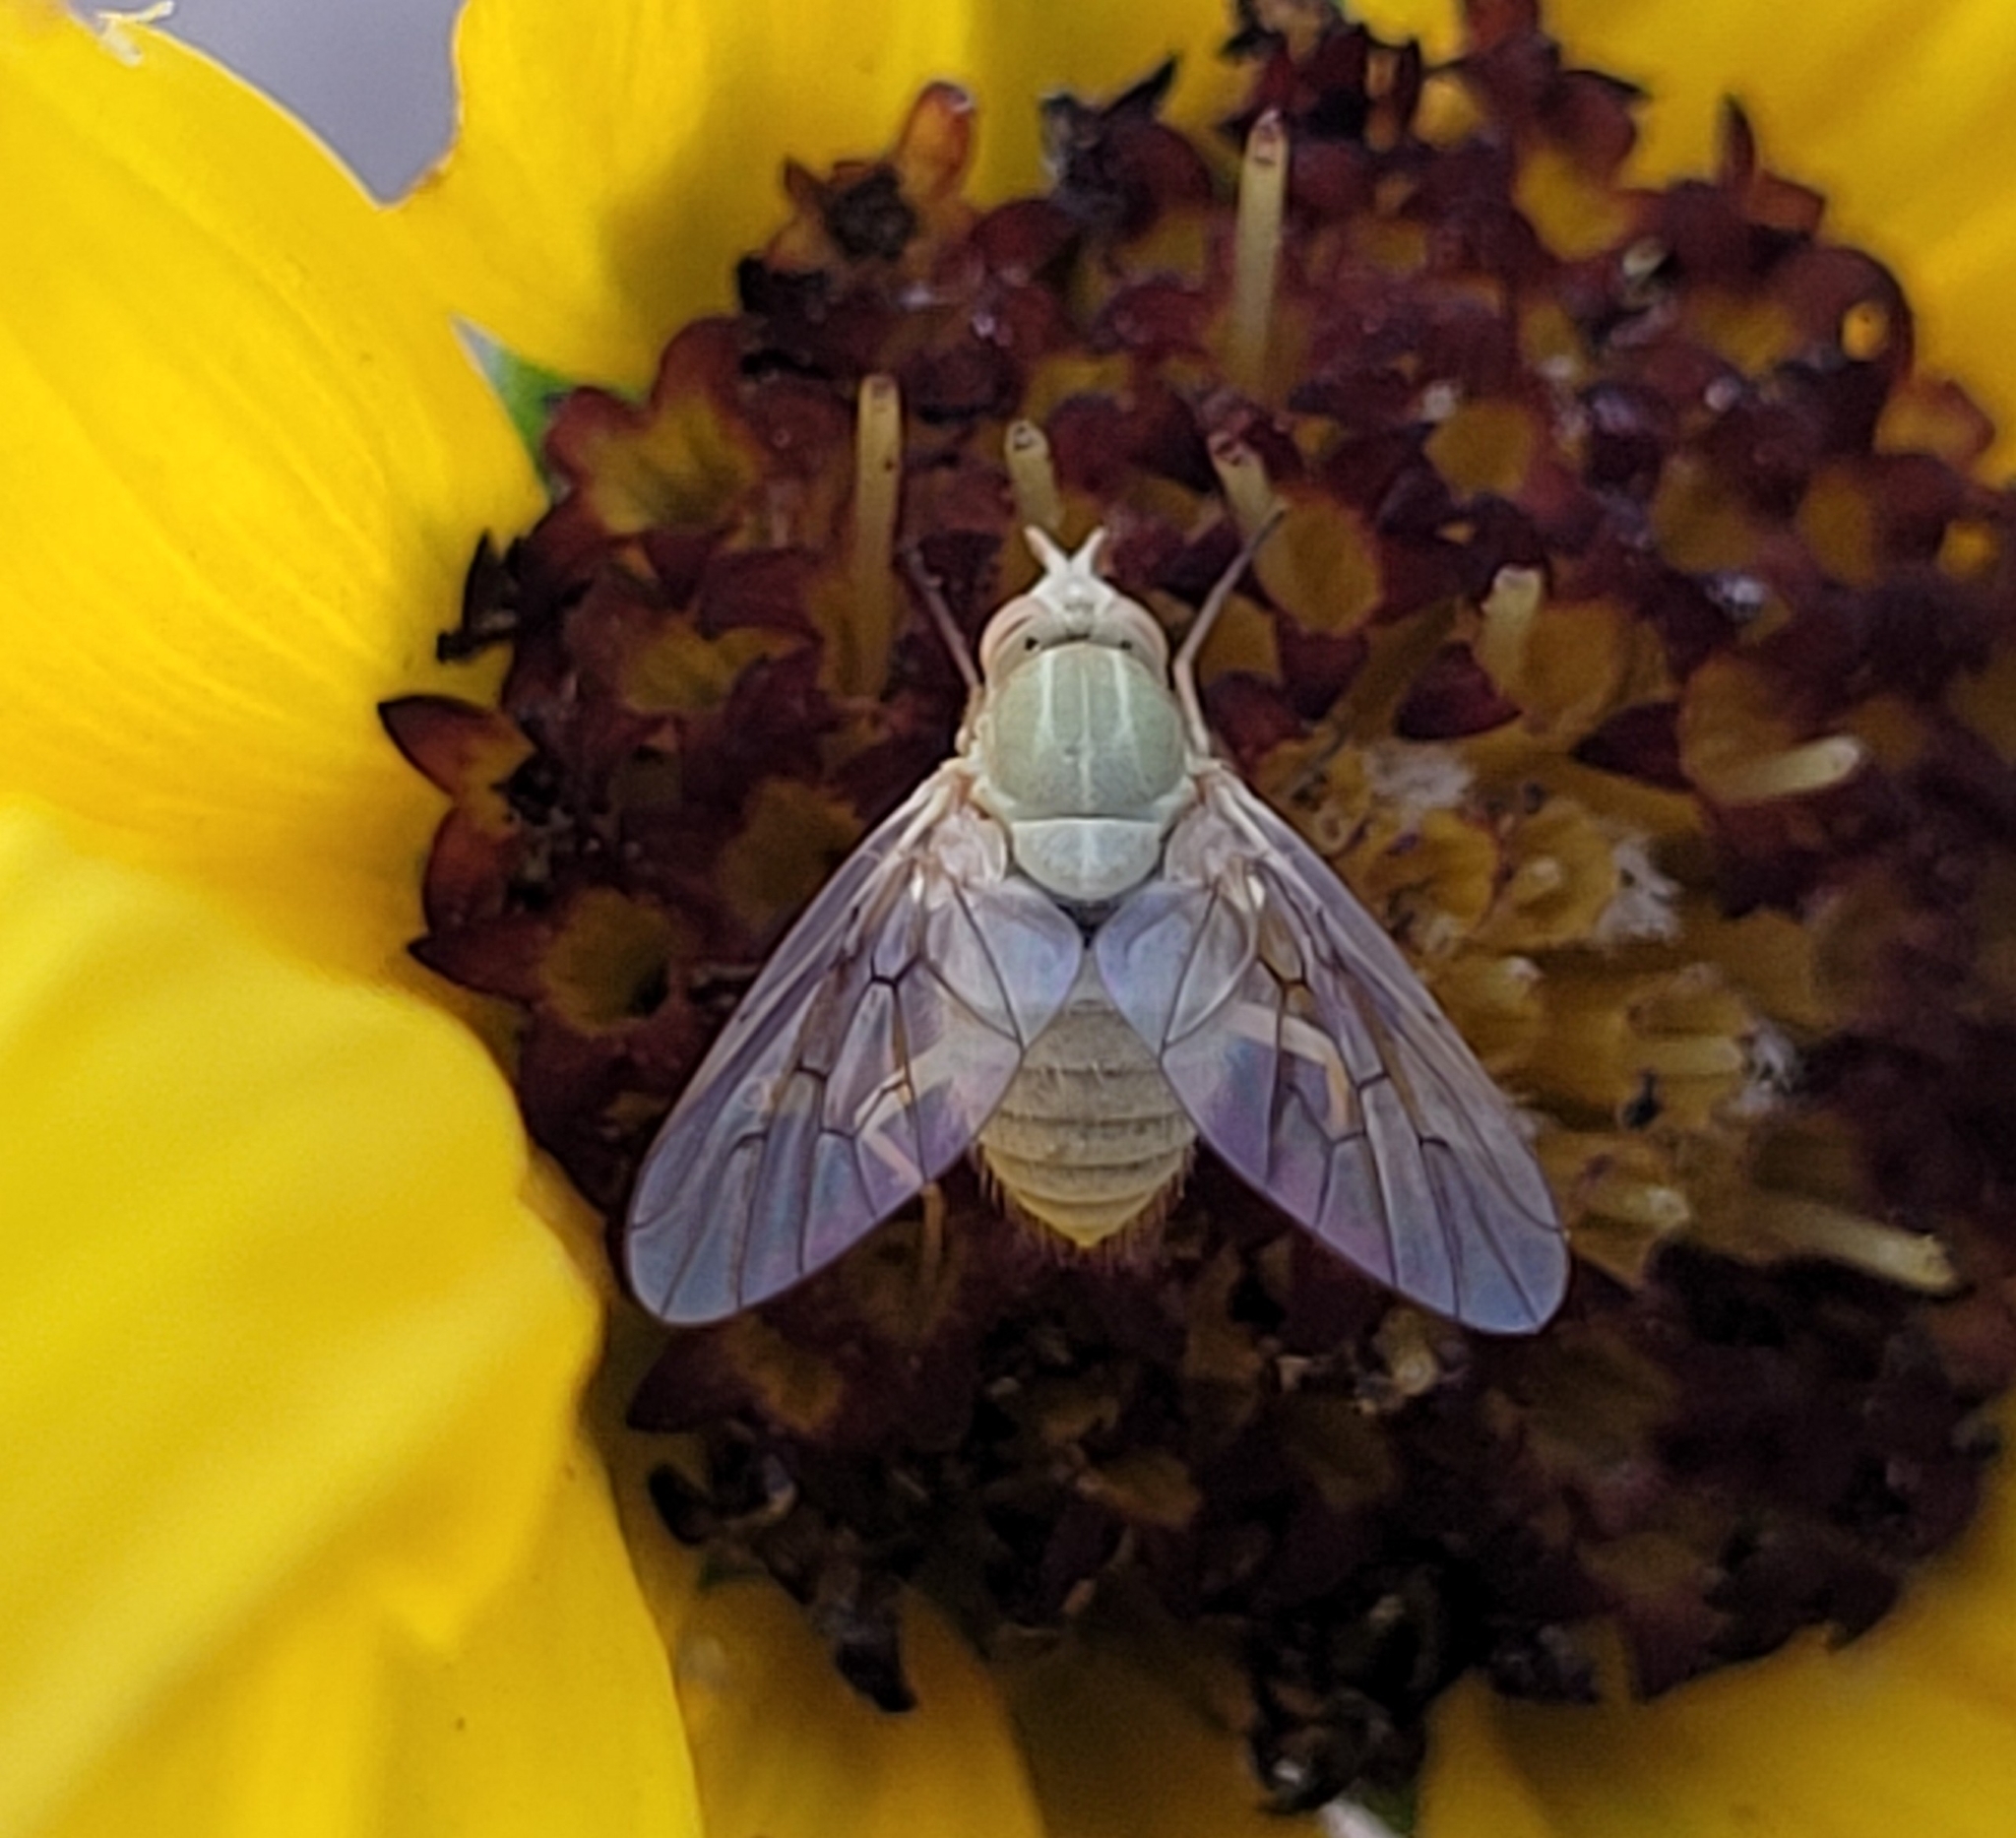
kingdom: Animalia
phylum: Arthropoda
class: Insecta
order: Diptera
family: Bombyliidae
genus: Poecilognathus
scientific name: Poecilognathus sulphureus
